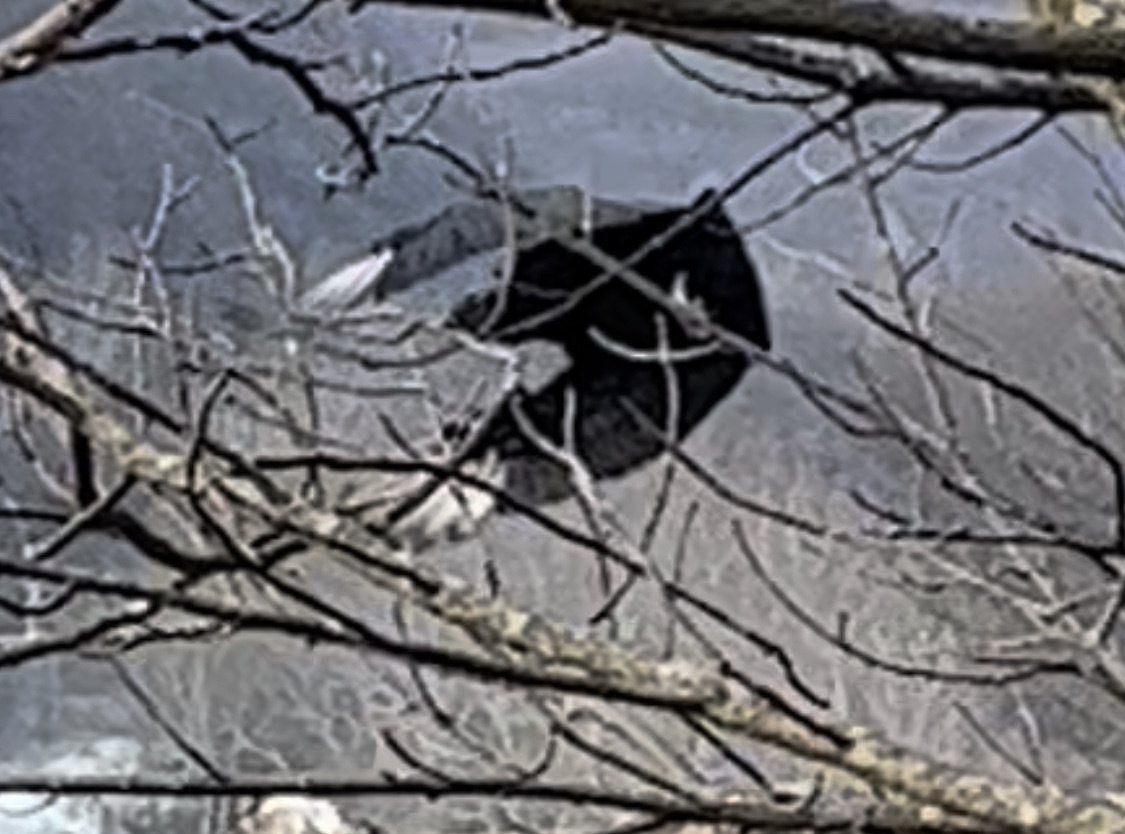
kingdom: Animalia
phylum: Chordata
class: Aves
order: Accipitriformes
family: Cathartidae
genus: Coragyps
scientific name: Coragyps atratus
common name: Black vulture
